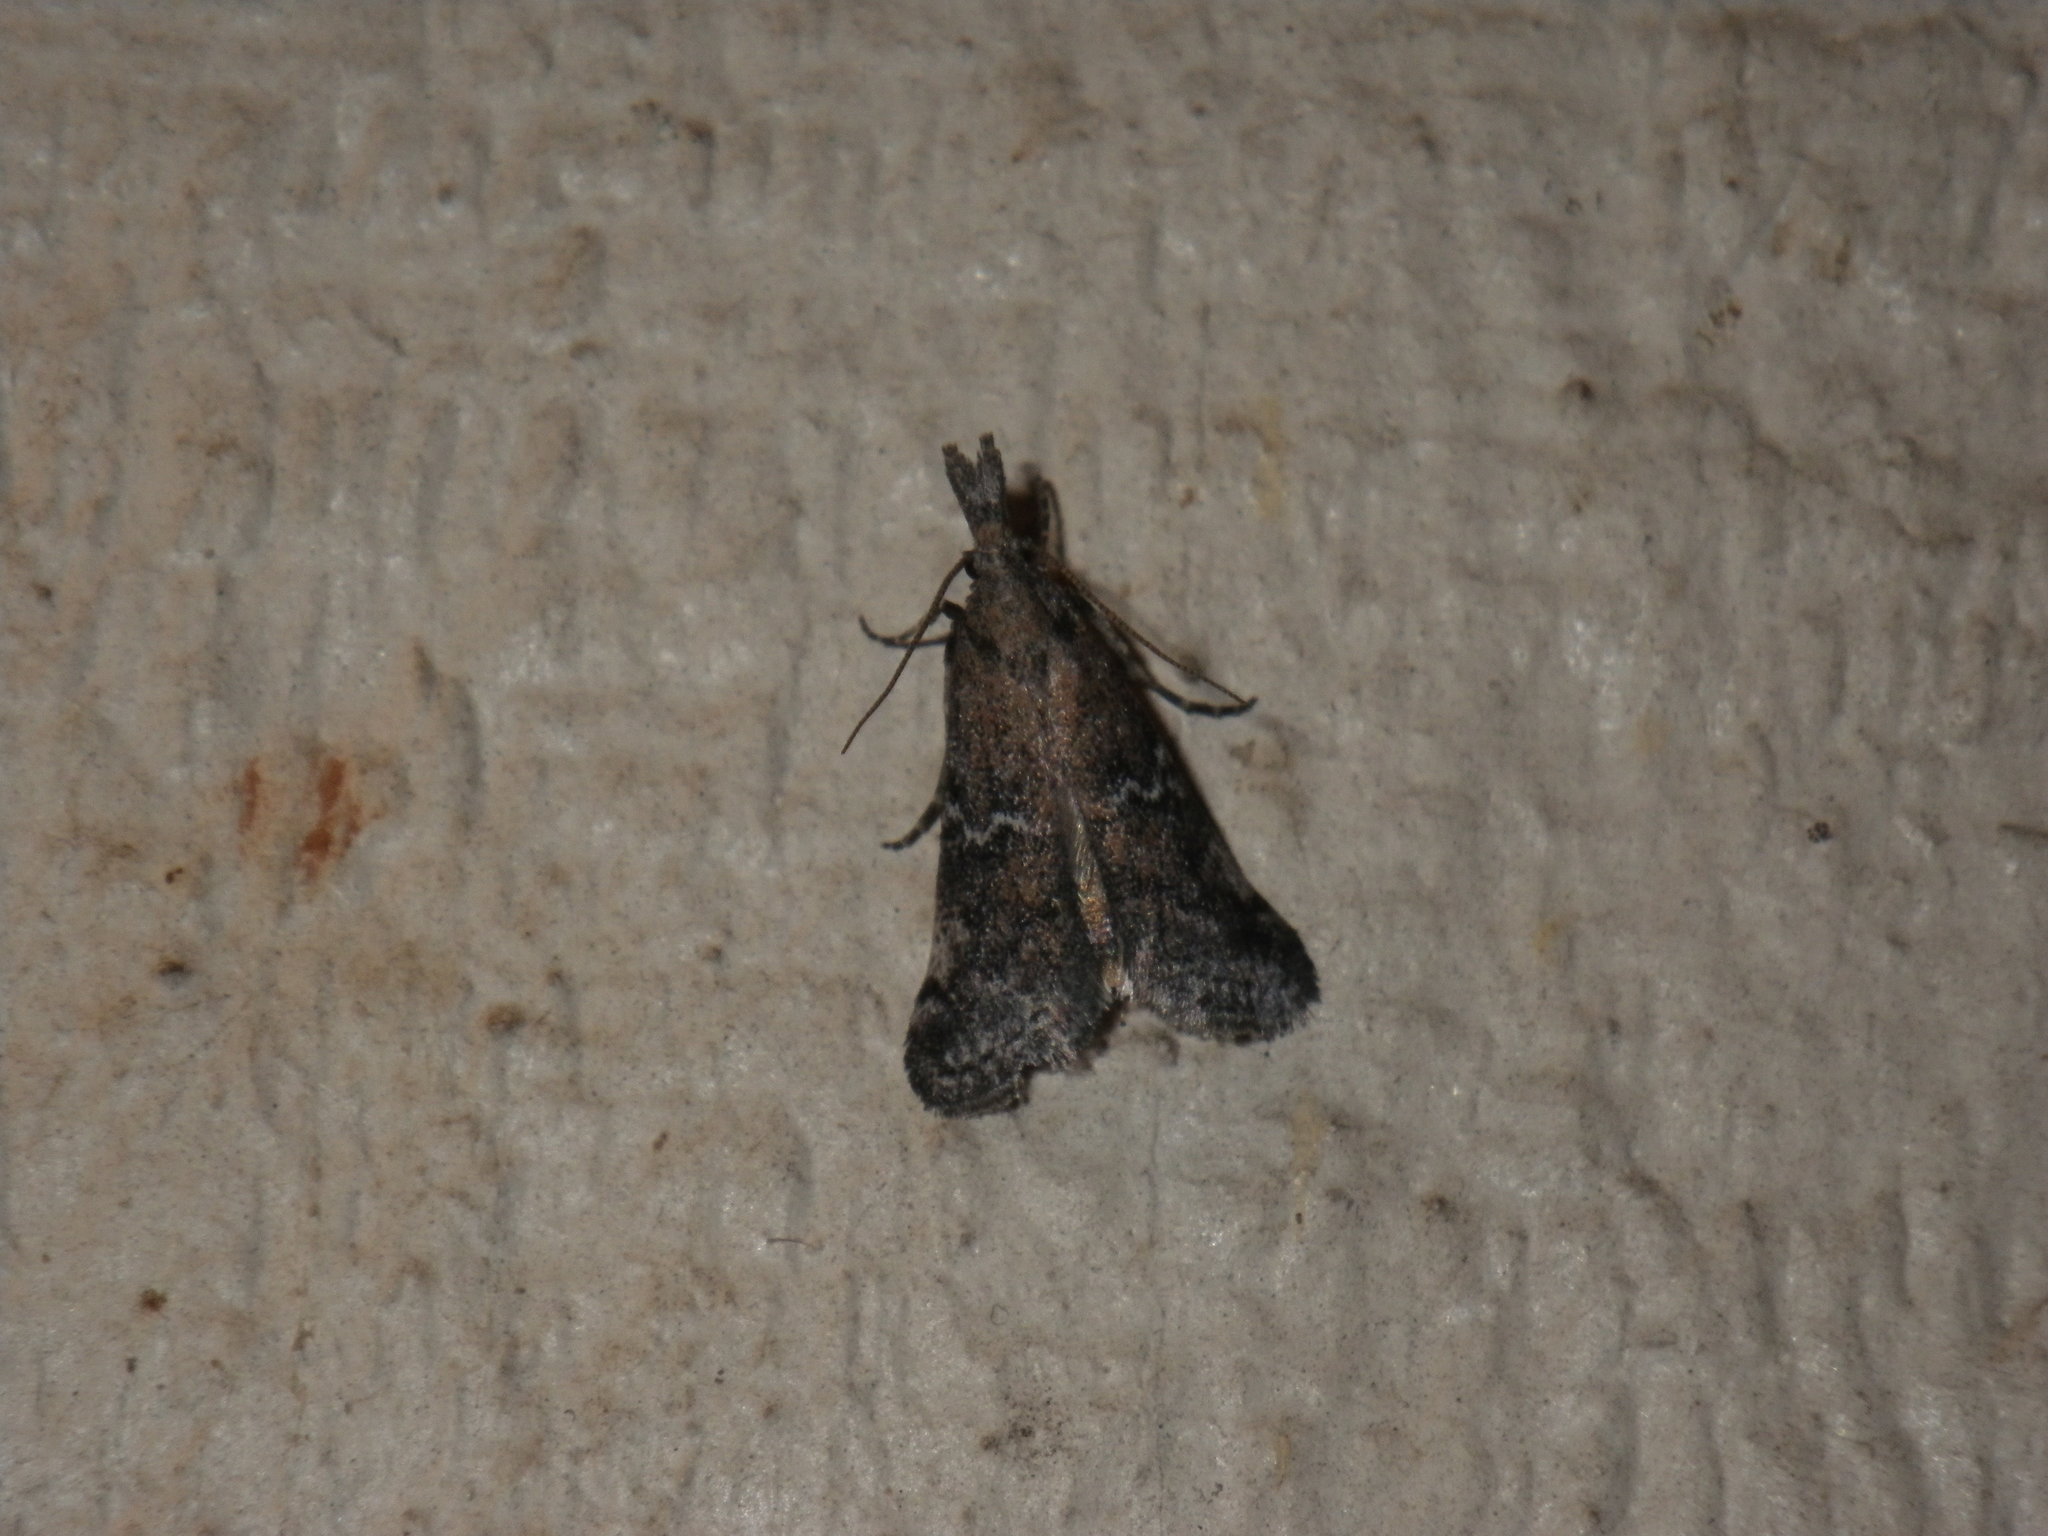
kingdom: Animalia
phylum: Arthropoda
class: Insecta
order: Lepidoptera
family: Pyralidae
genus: Alpheias
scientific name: Alpheias transferens
